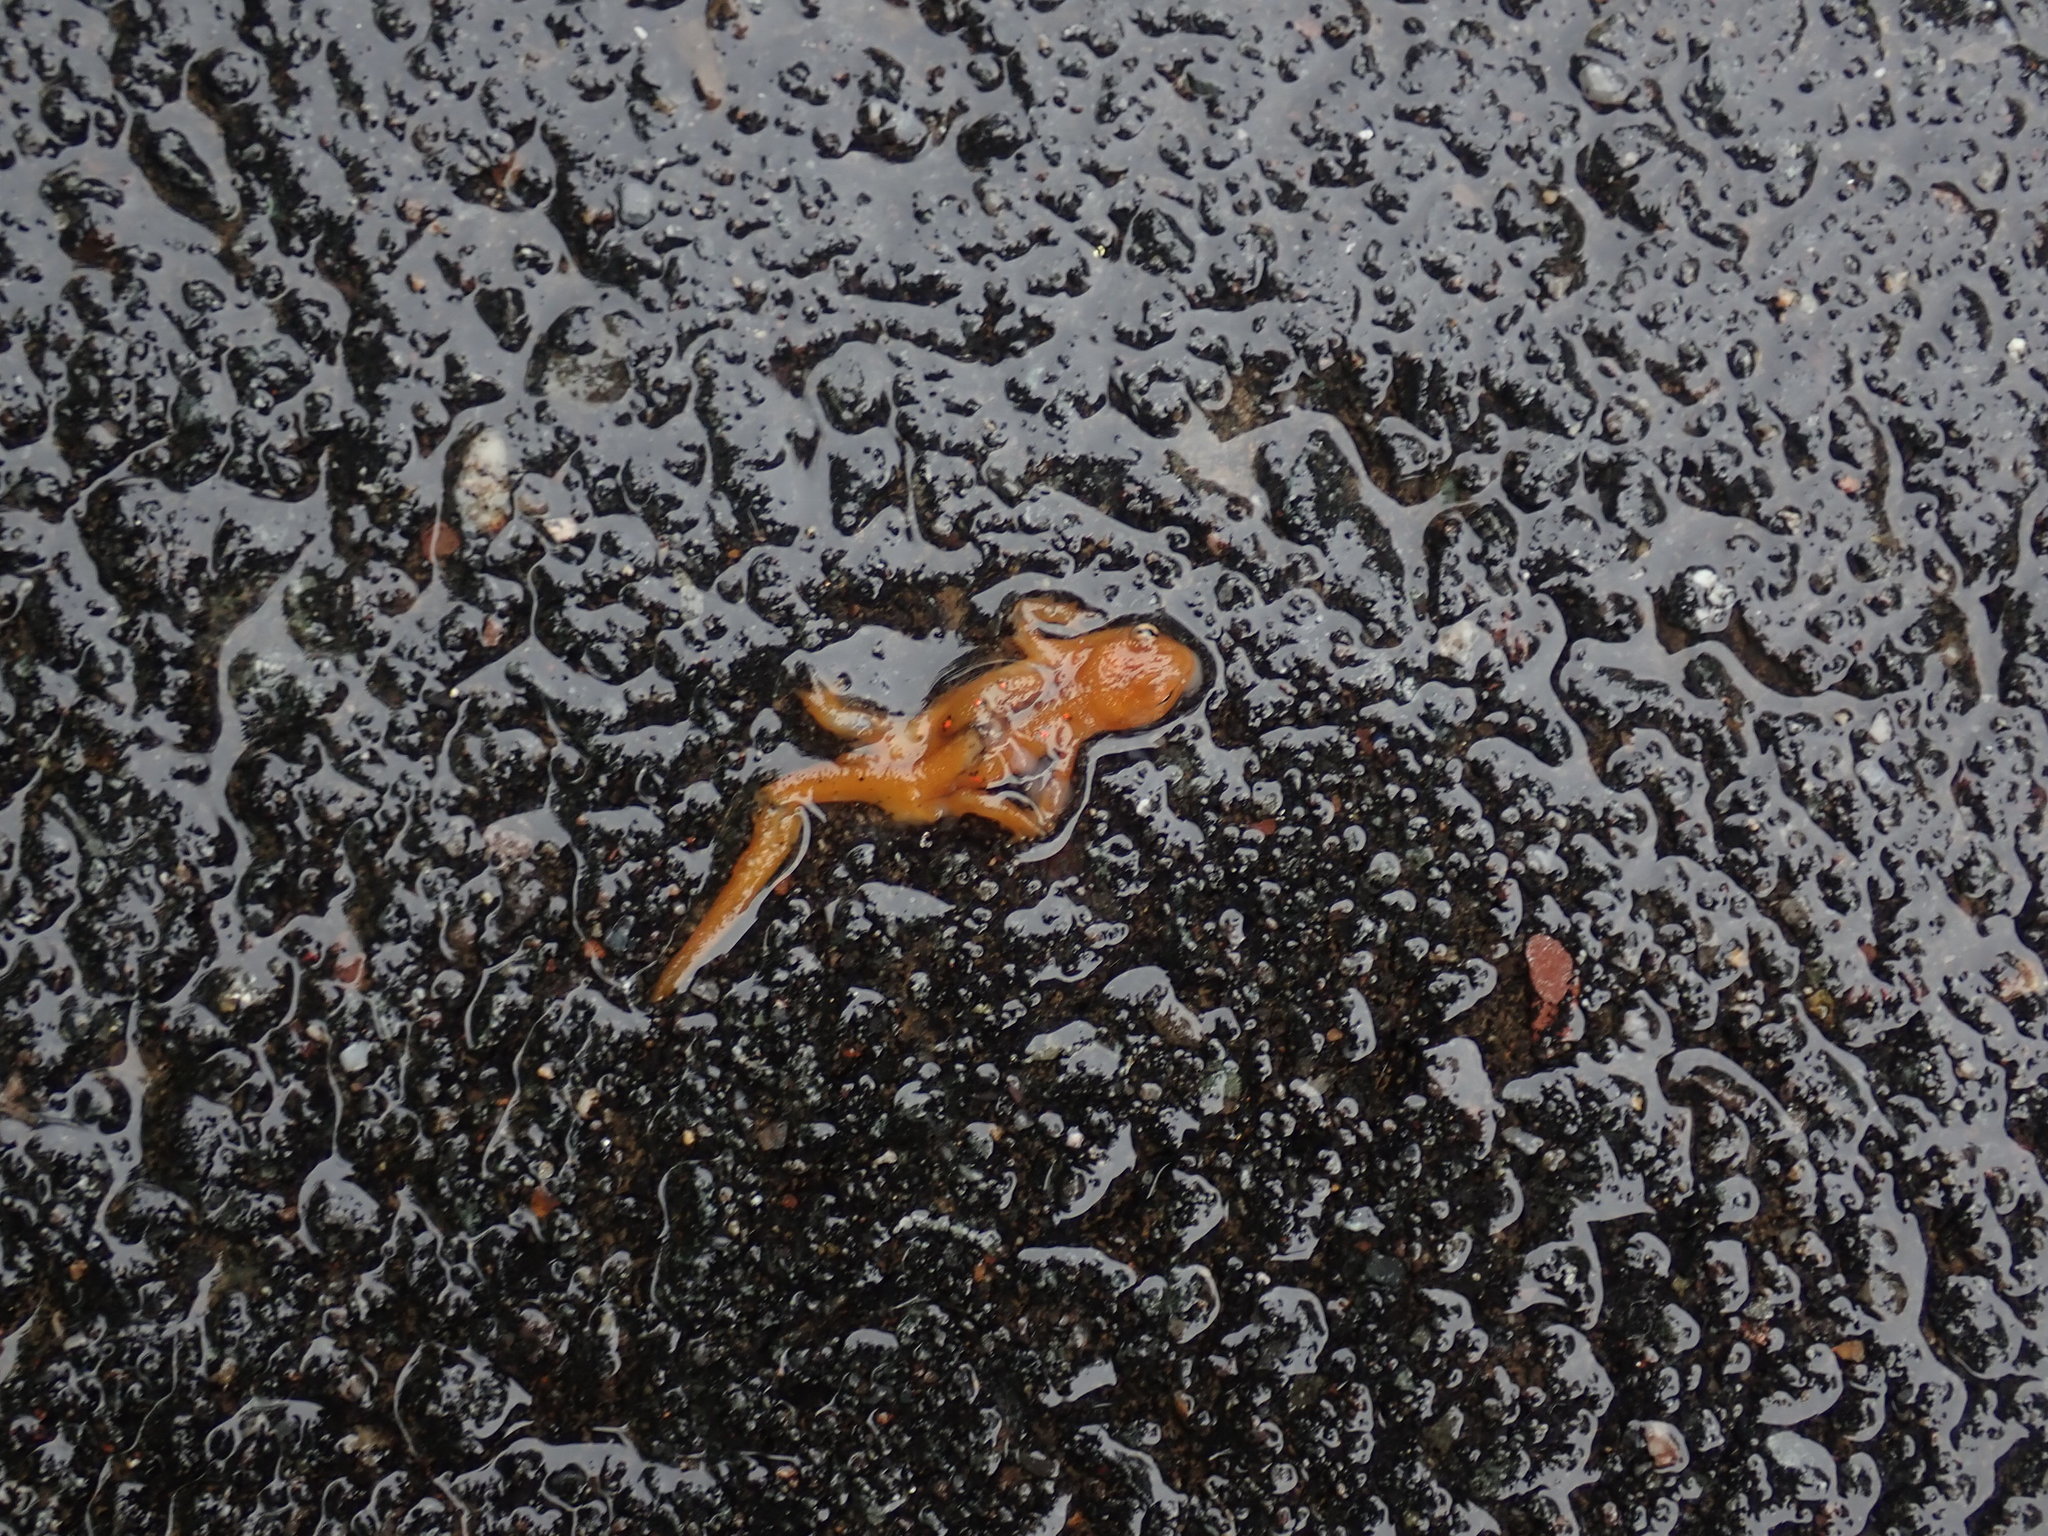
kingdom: Animalia
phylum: Chordata
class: Amphibia
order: Caudata
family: Salamandridae
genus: Notophthalmus
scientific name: Notophthalmus viridescens
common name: Eastern newt
